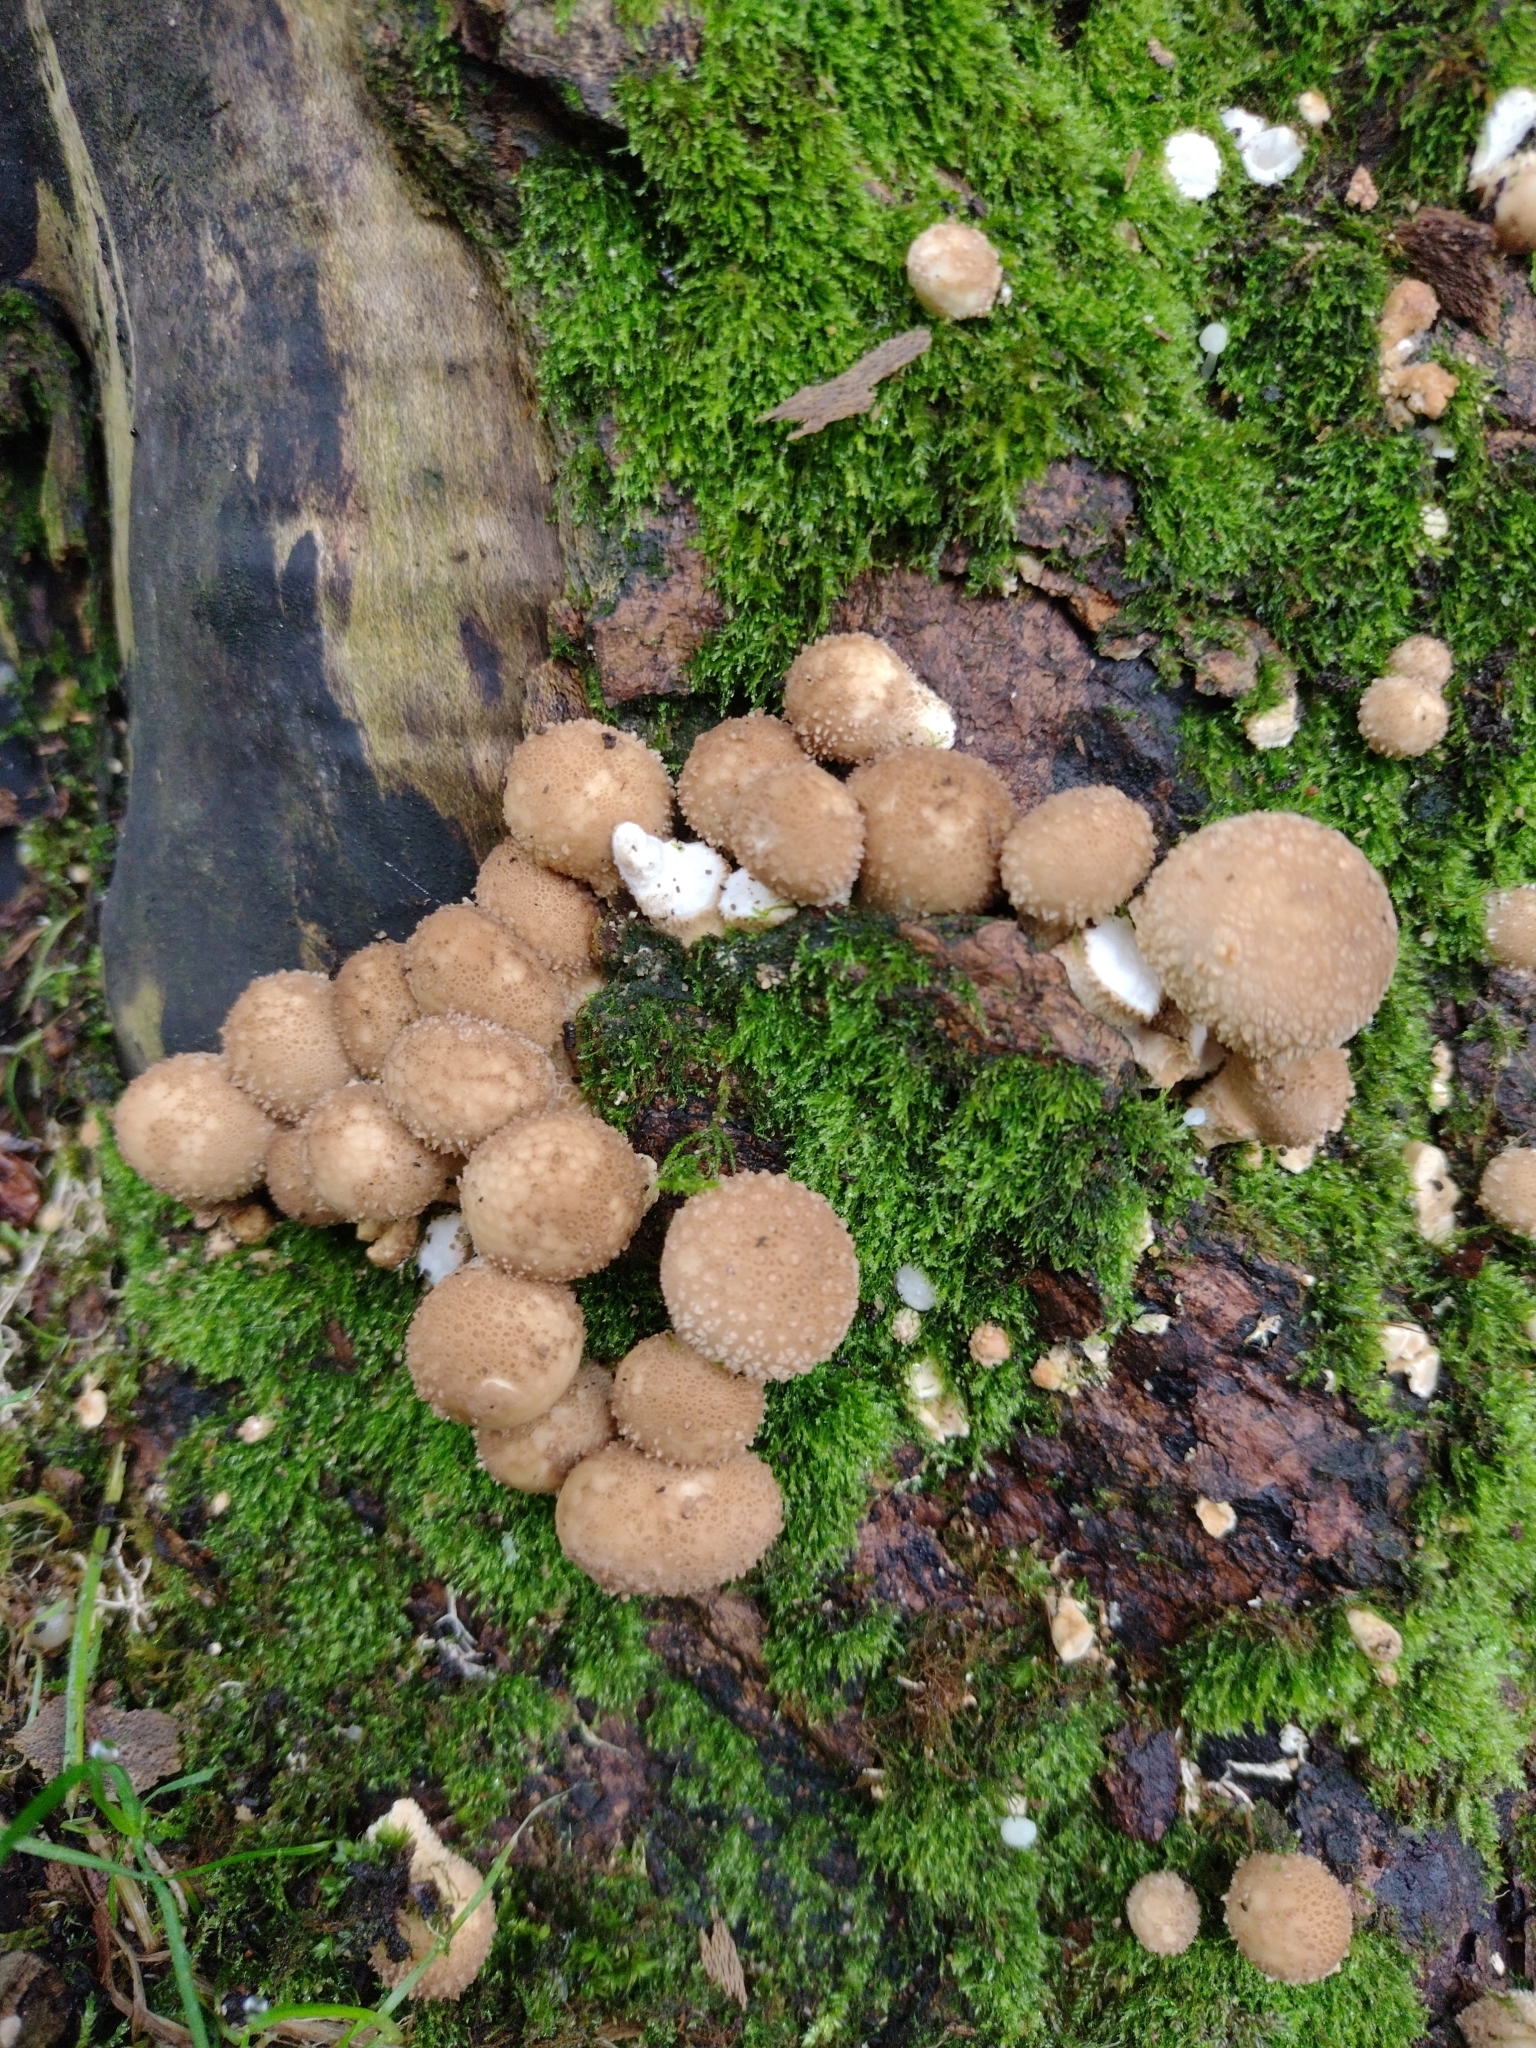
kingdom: Fungi
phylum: Basidiomycota
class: Agaricomycetes
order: Agaricales
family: Lycoperdaceae
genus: Apioperdon
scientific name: Apioperdon pyriforme
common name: Pear-shaped puffball
